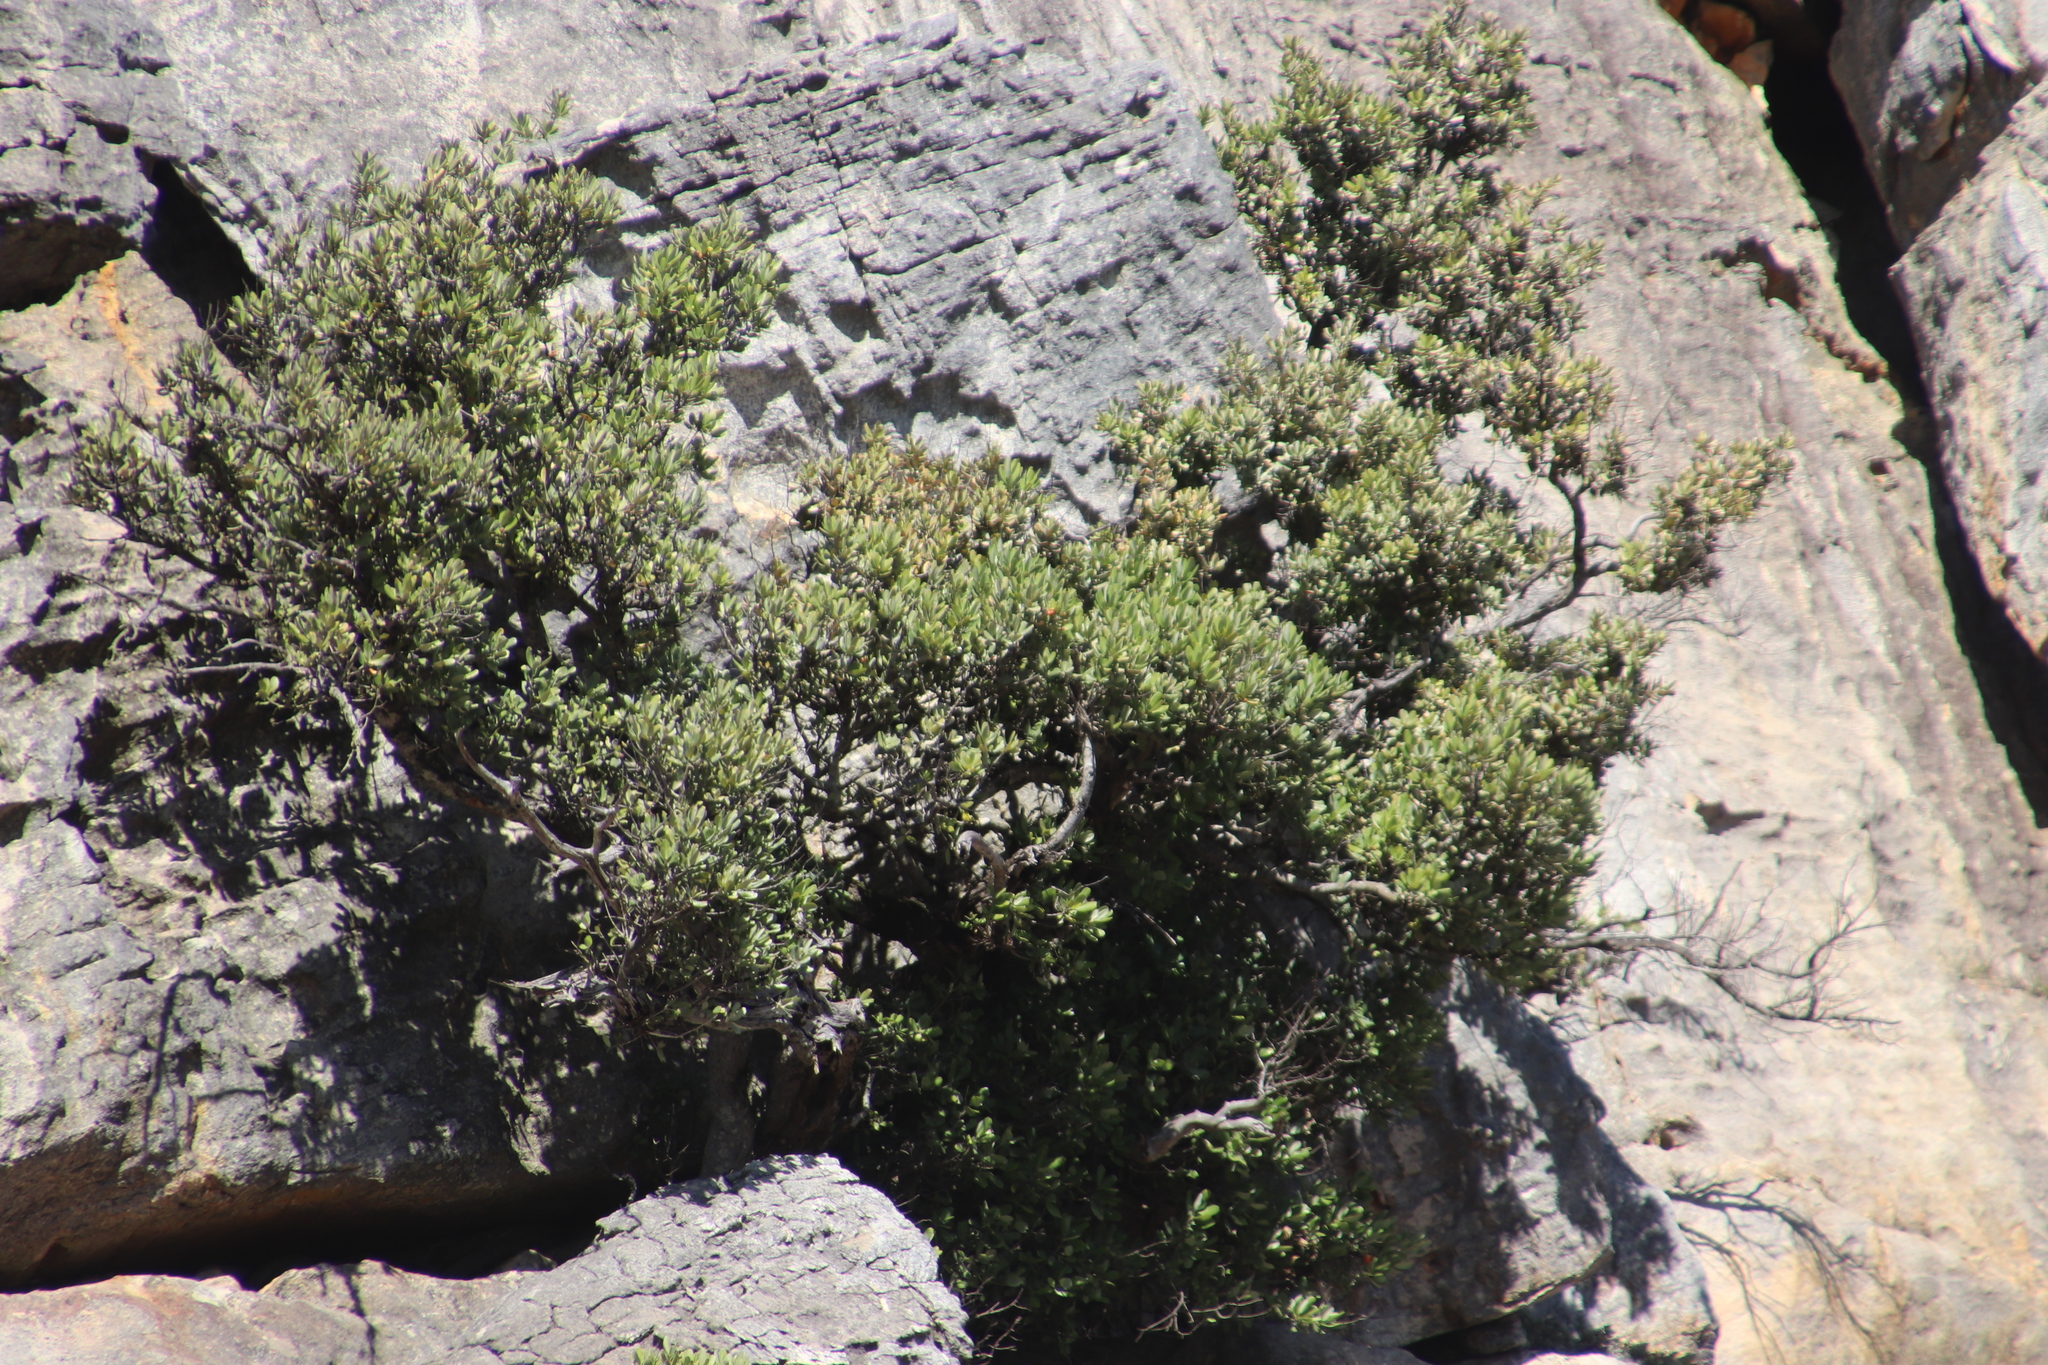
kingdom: Plantae
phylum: Tracheophyta
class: Magnoliopsida
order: Sapindales
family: Anacardiaceae
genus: Heeria
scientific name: Heeria argentea
